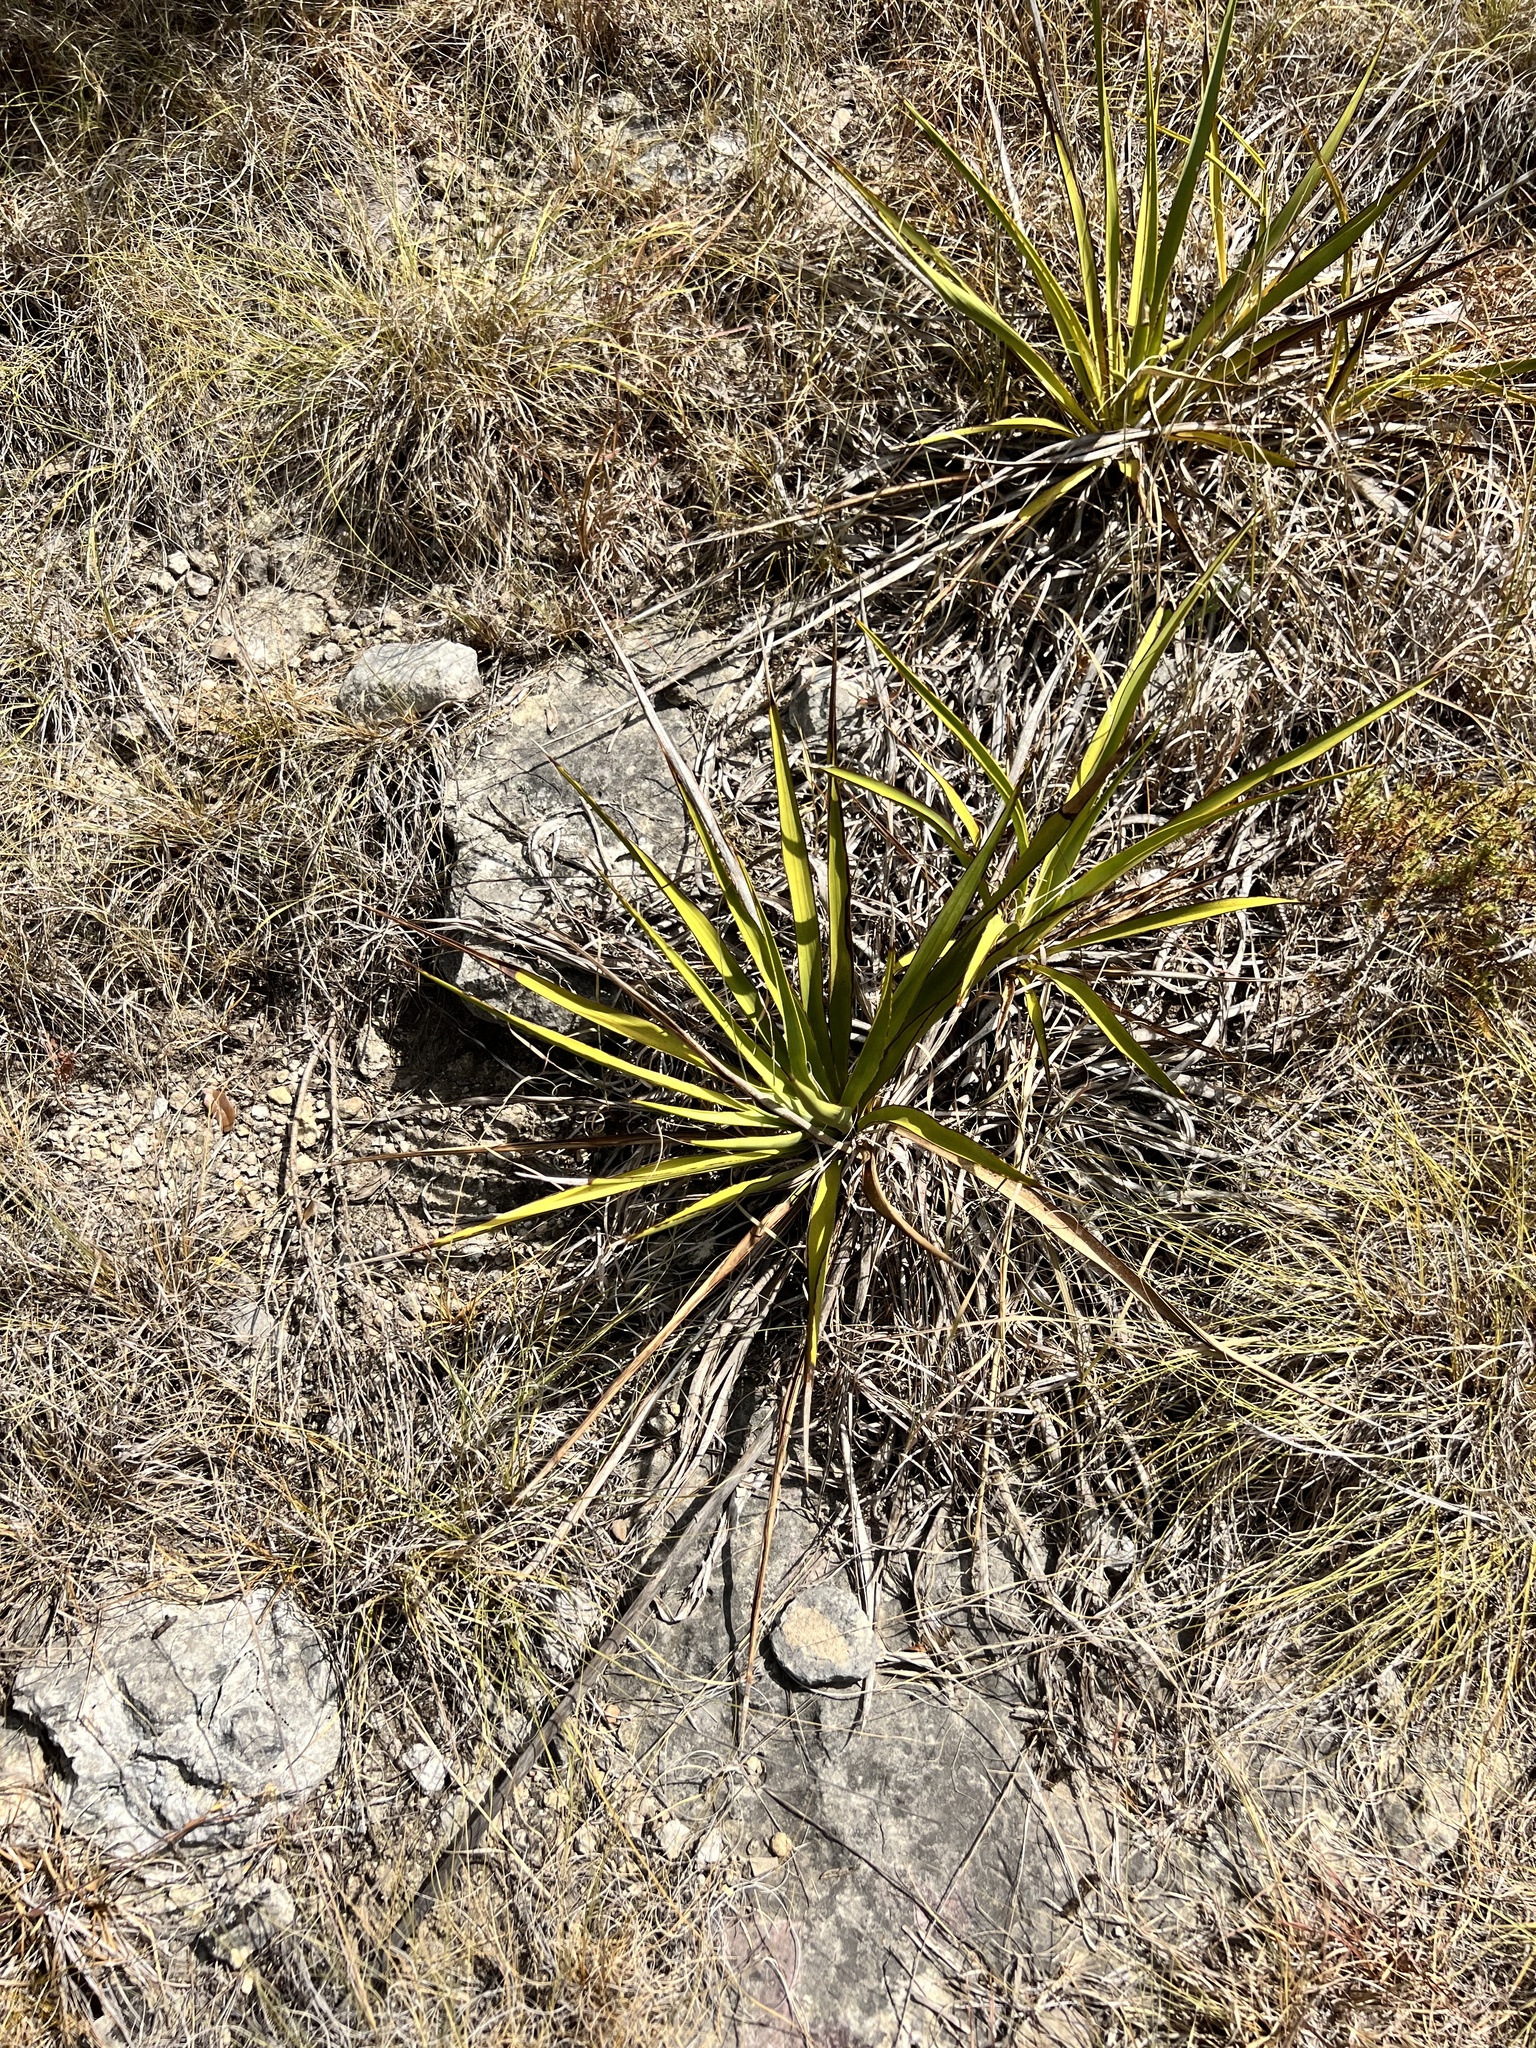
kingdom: Plantae
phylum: Tracheophyta
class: Liliopsida
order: Asparagales
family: Asparagaceae
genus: Yucca
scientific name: Yucca rupicola
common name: Twisted-leaf spanish-dagger
